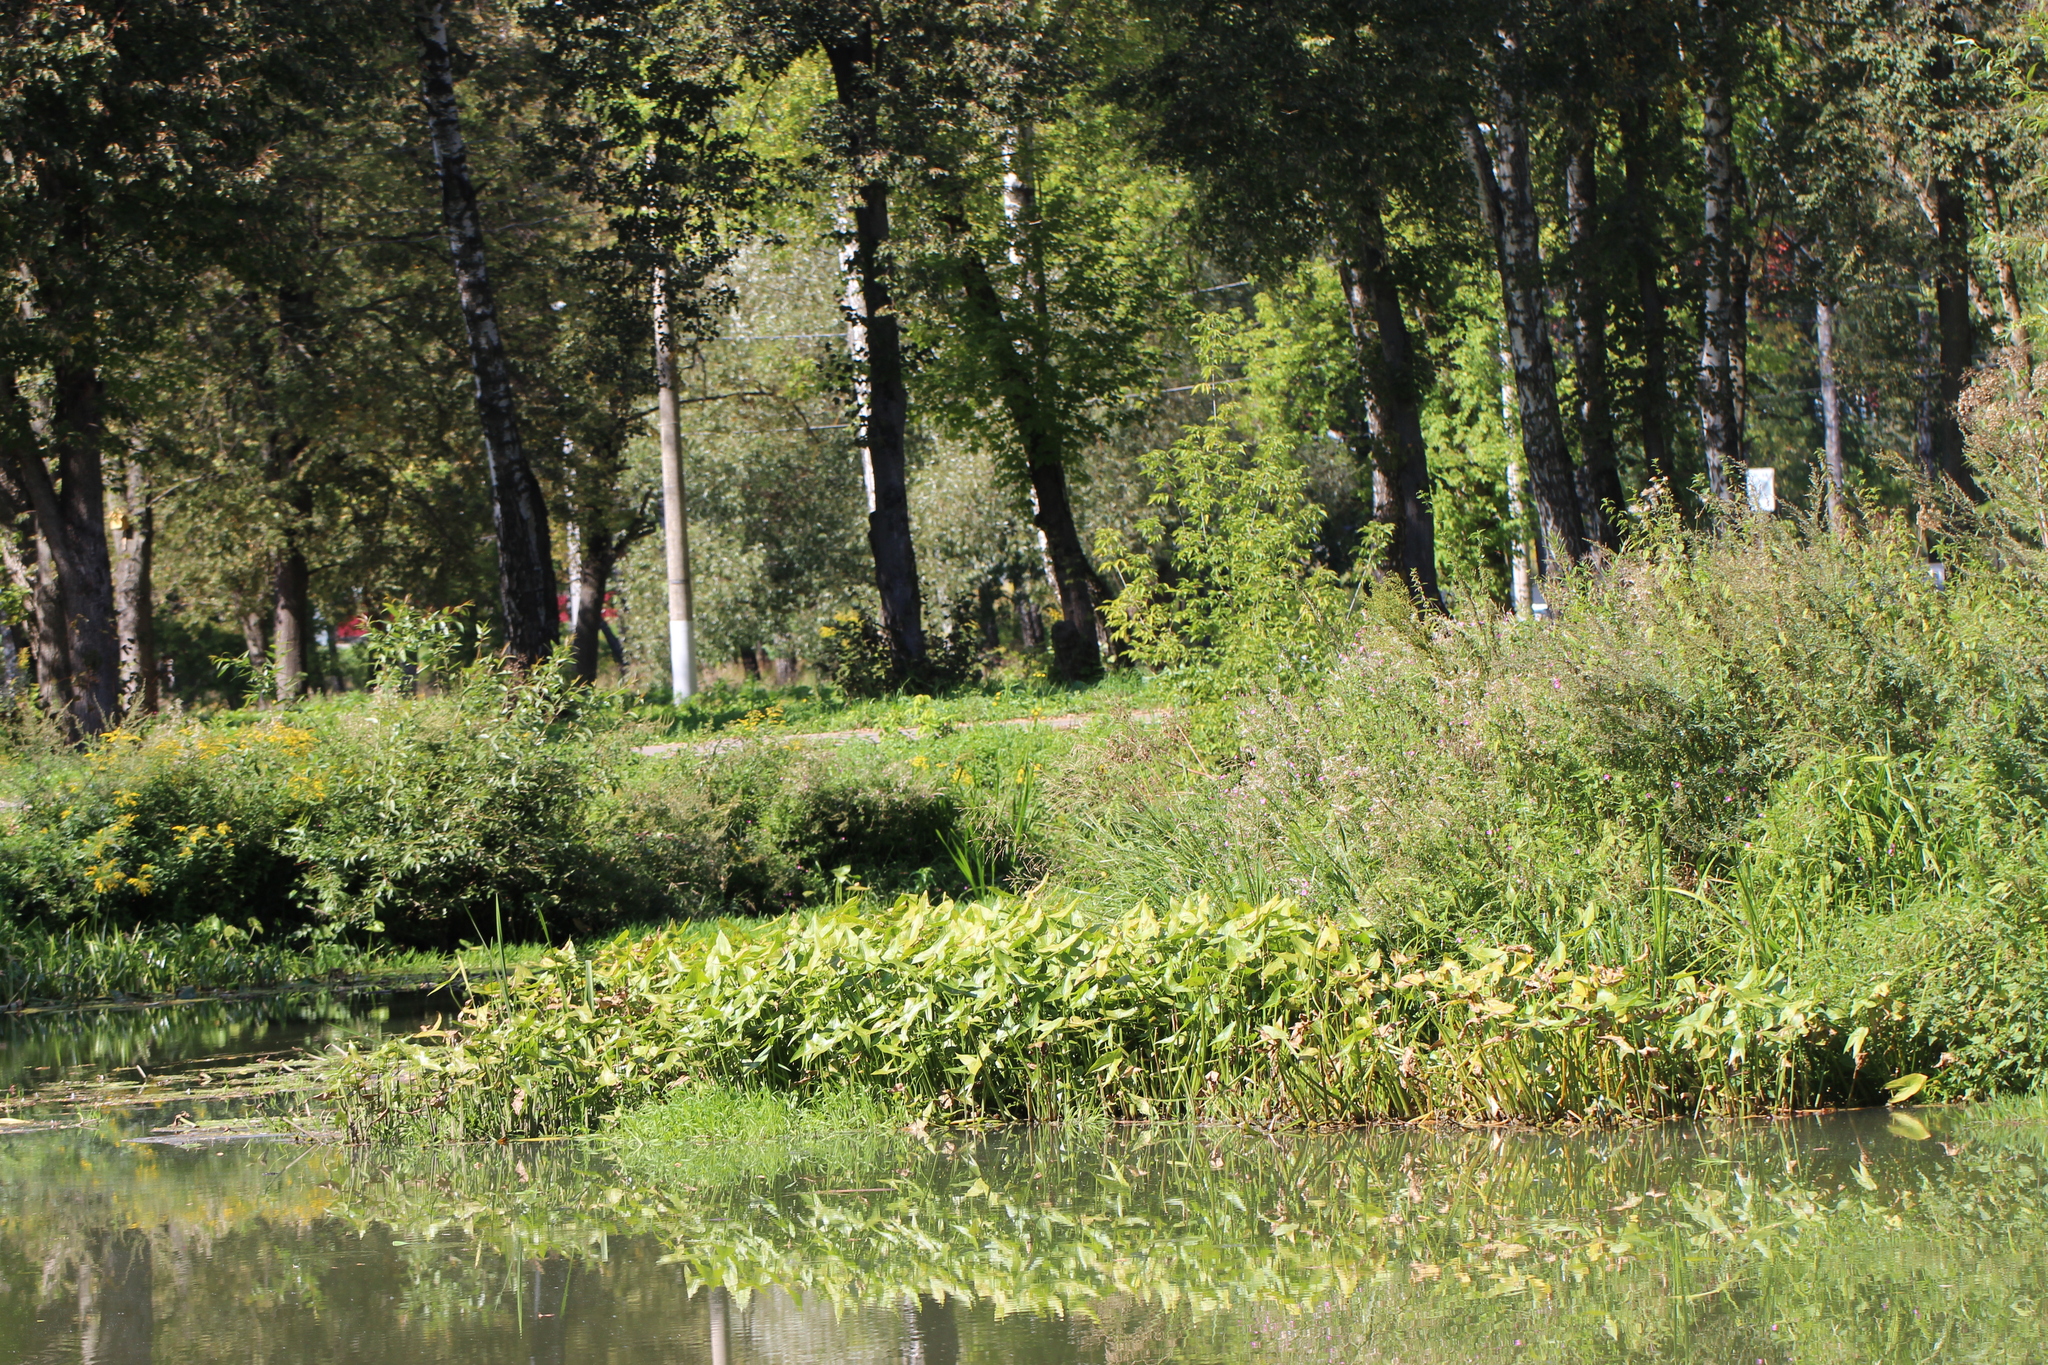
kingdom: Plantae
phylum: Tracheophyta
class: Liliopsida
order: Alismatales
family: Alismataceae
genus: Sagittaria
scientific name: Sagittaria sagittifolia
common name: Arrowhead
